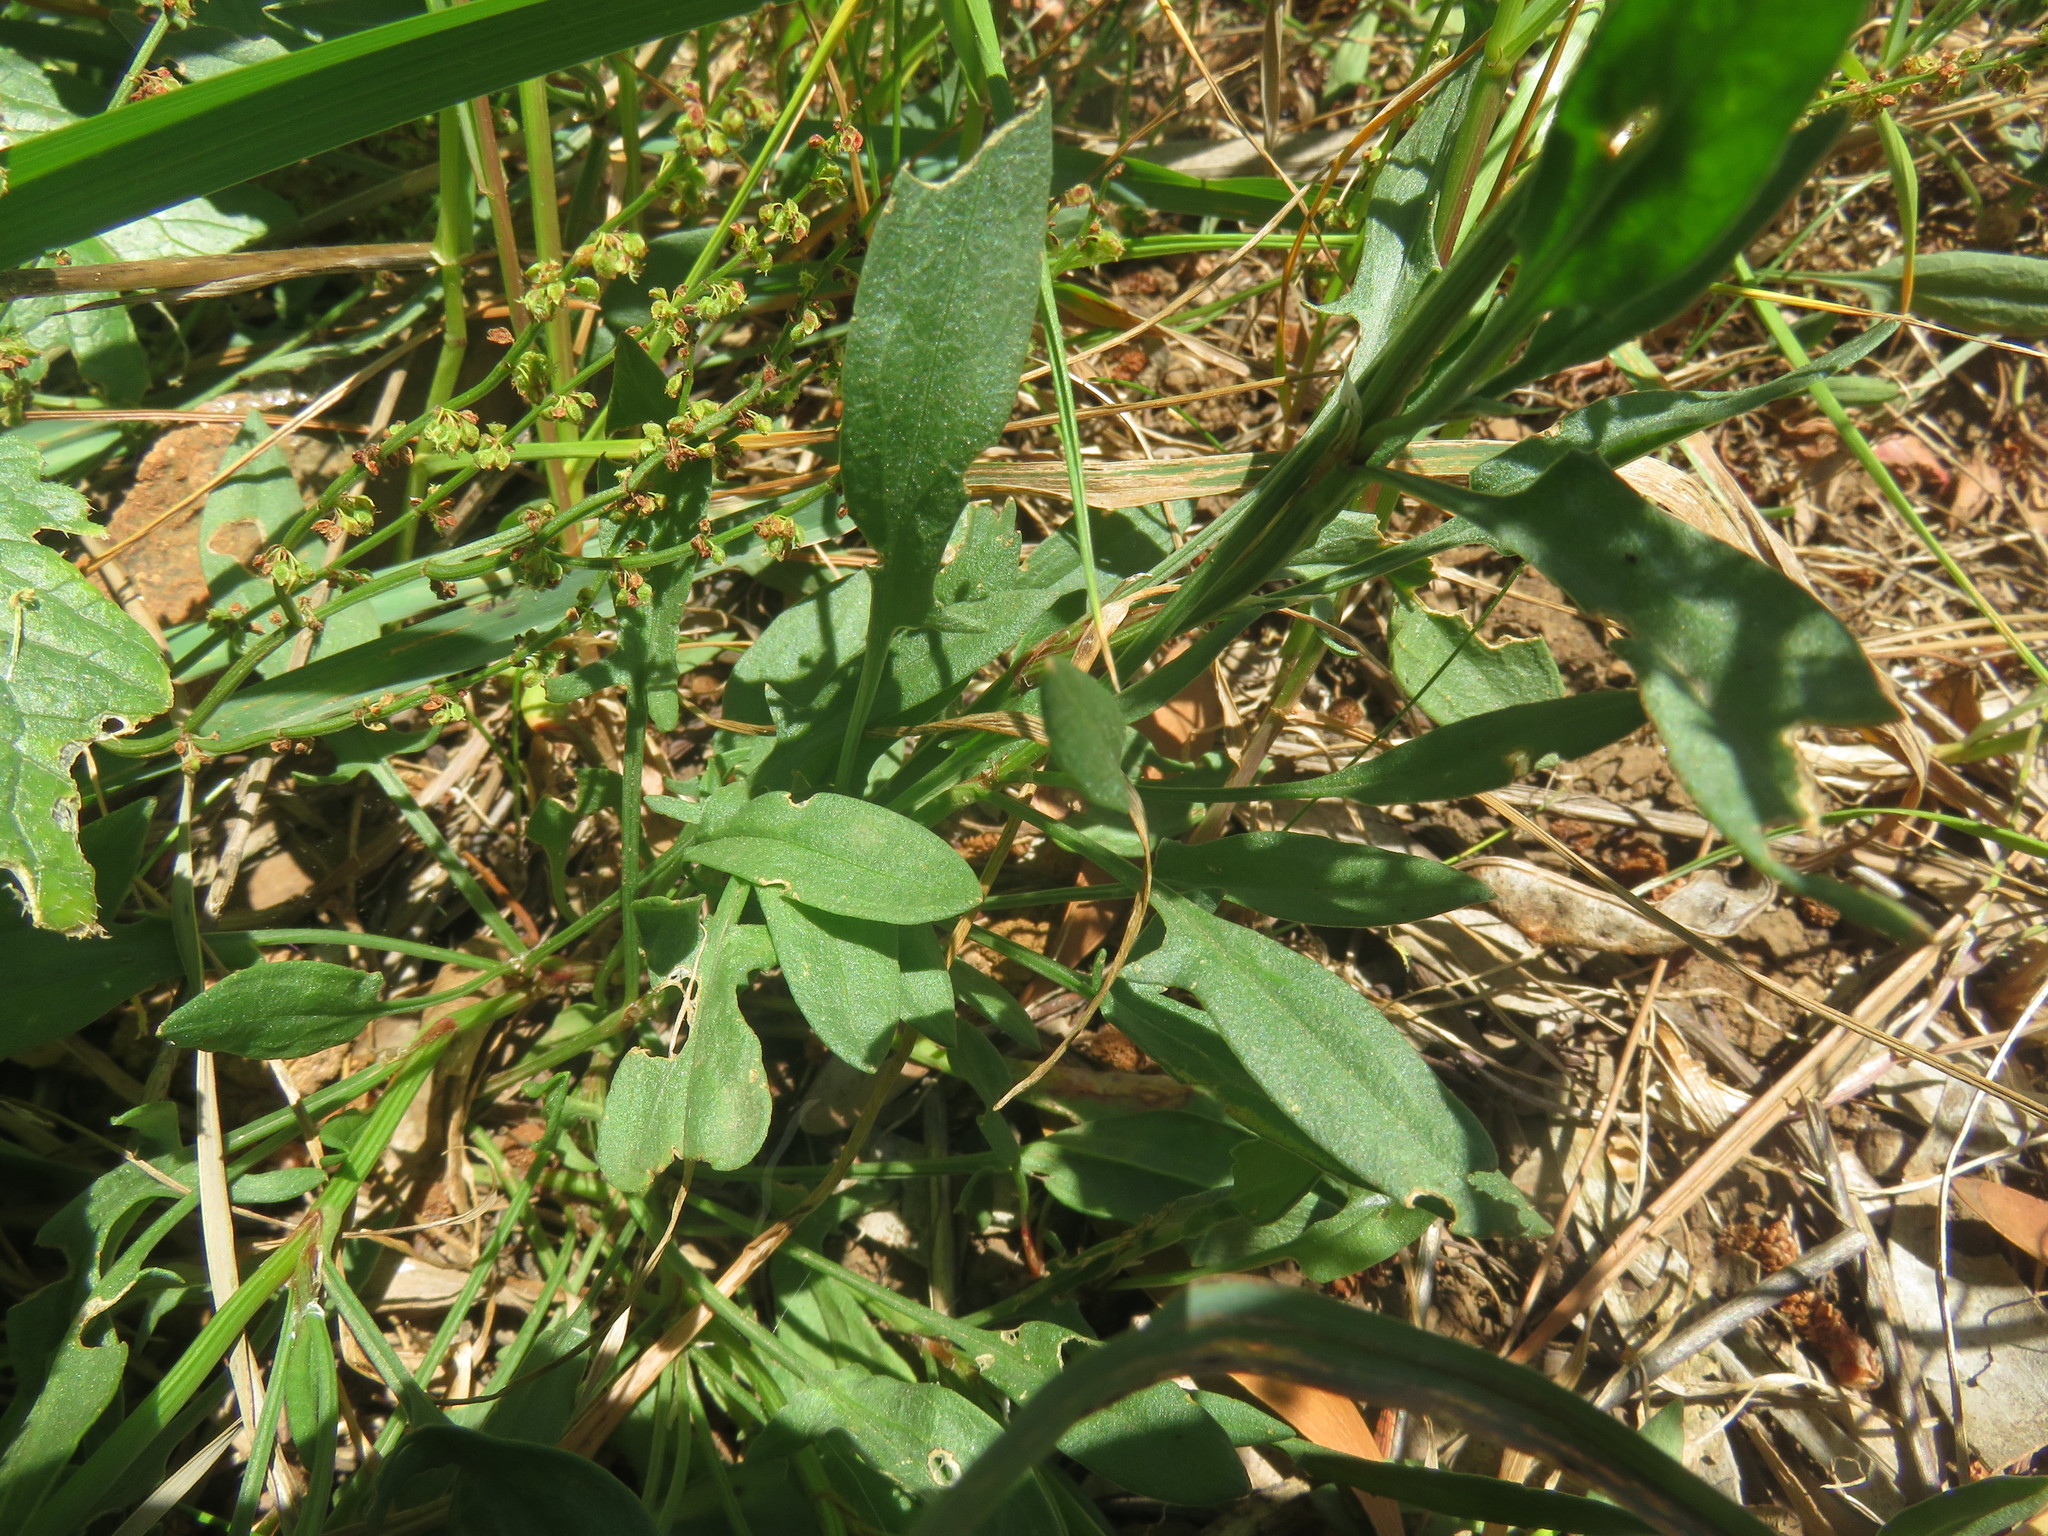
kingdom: Plantae
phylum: Tracheophyta
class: Magnoliopsida
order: Caryophyllales
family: Polygonaceae
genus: Rumex
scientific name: Rumex acetosella
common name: Common sheep sorrel
